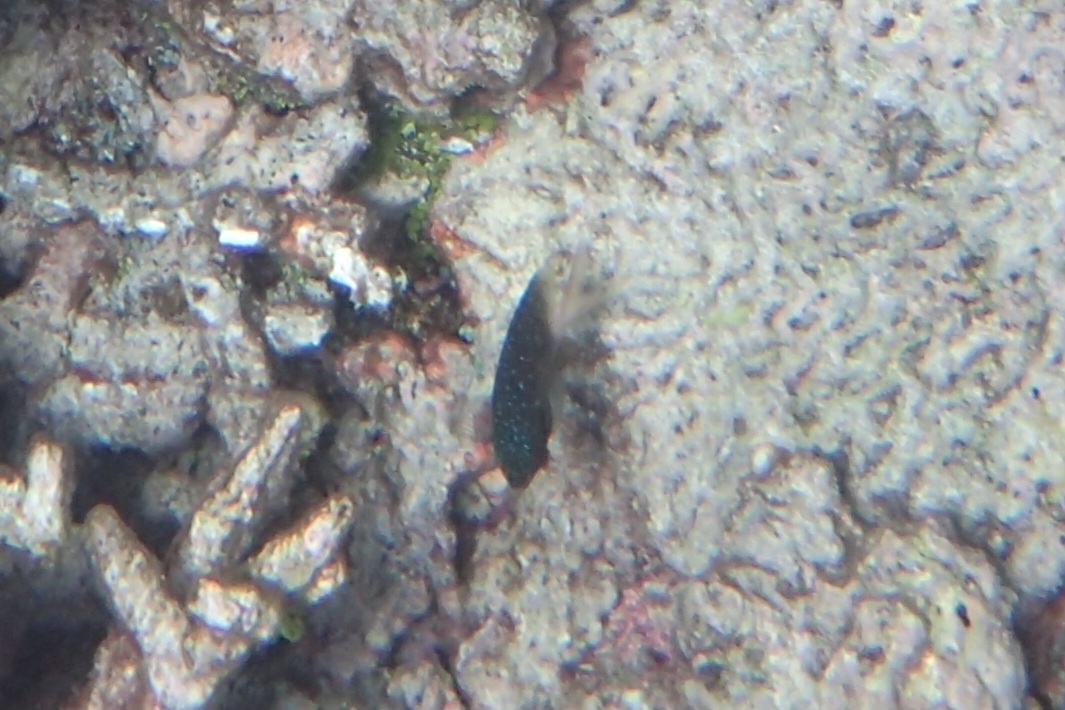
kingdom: Animalia
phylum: Chordata
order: Perciformes
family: Pomacentridae
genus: Plectroglyphidodon
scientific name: Plectroglyphidodon lacrymatus
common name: Jewel damsel
